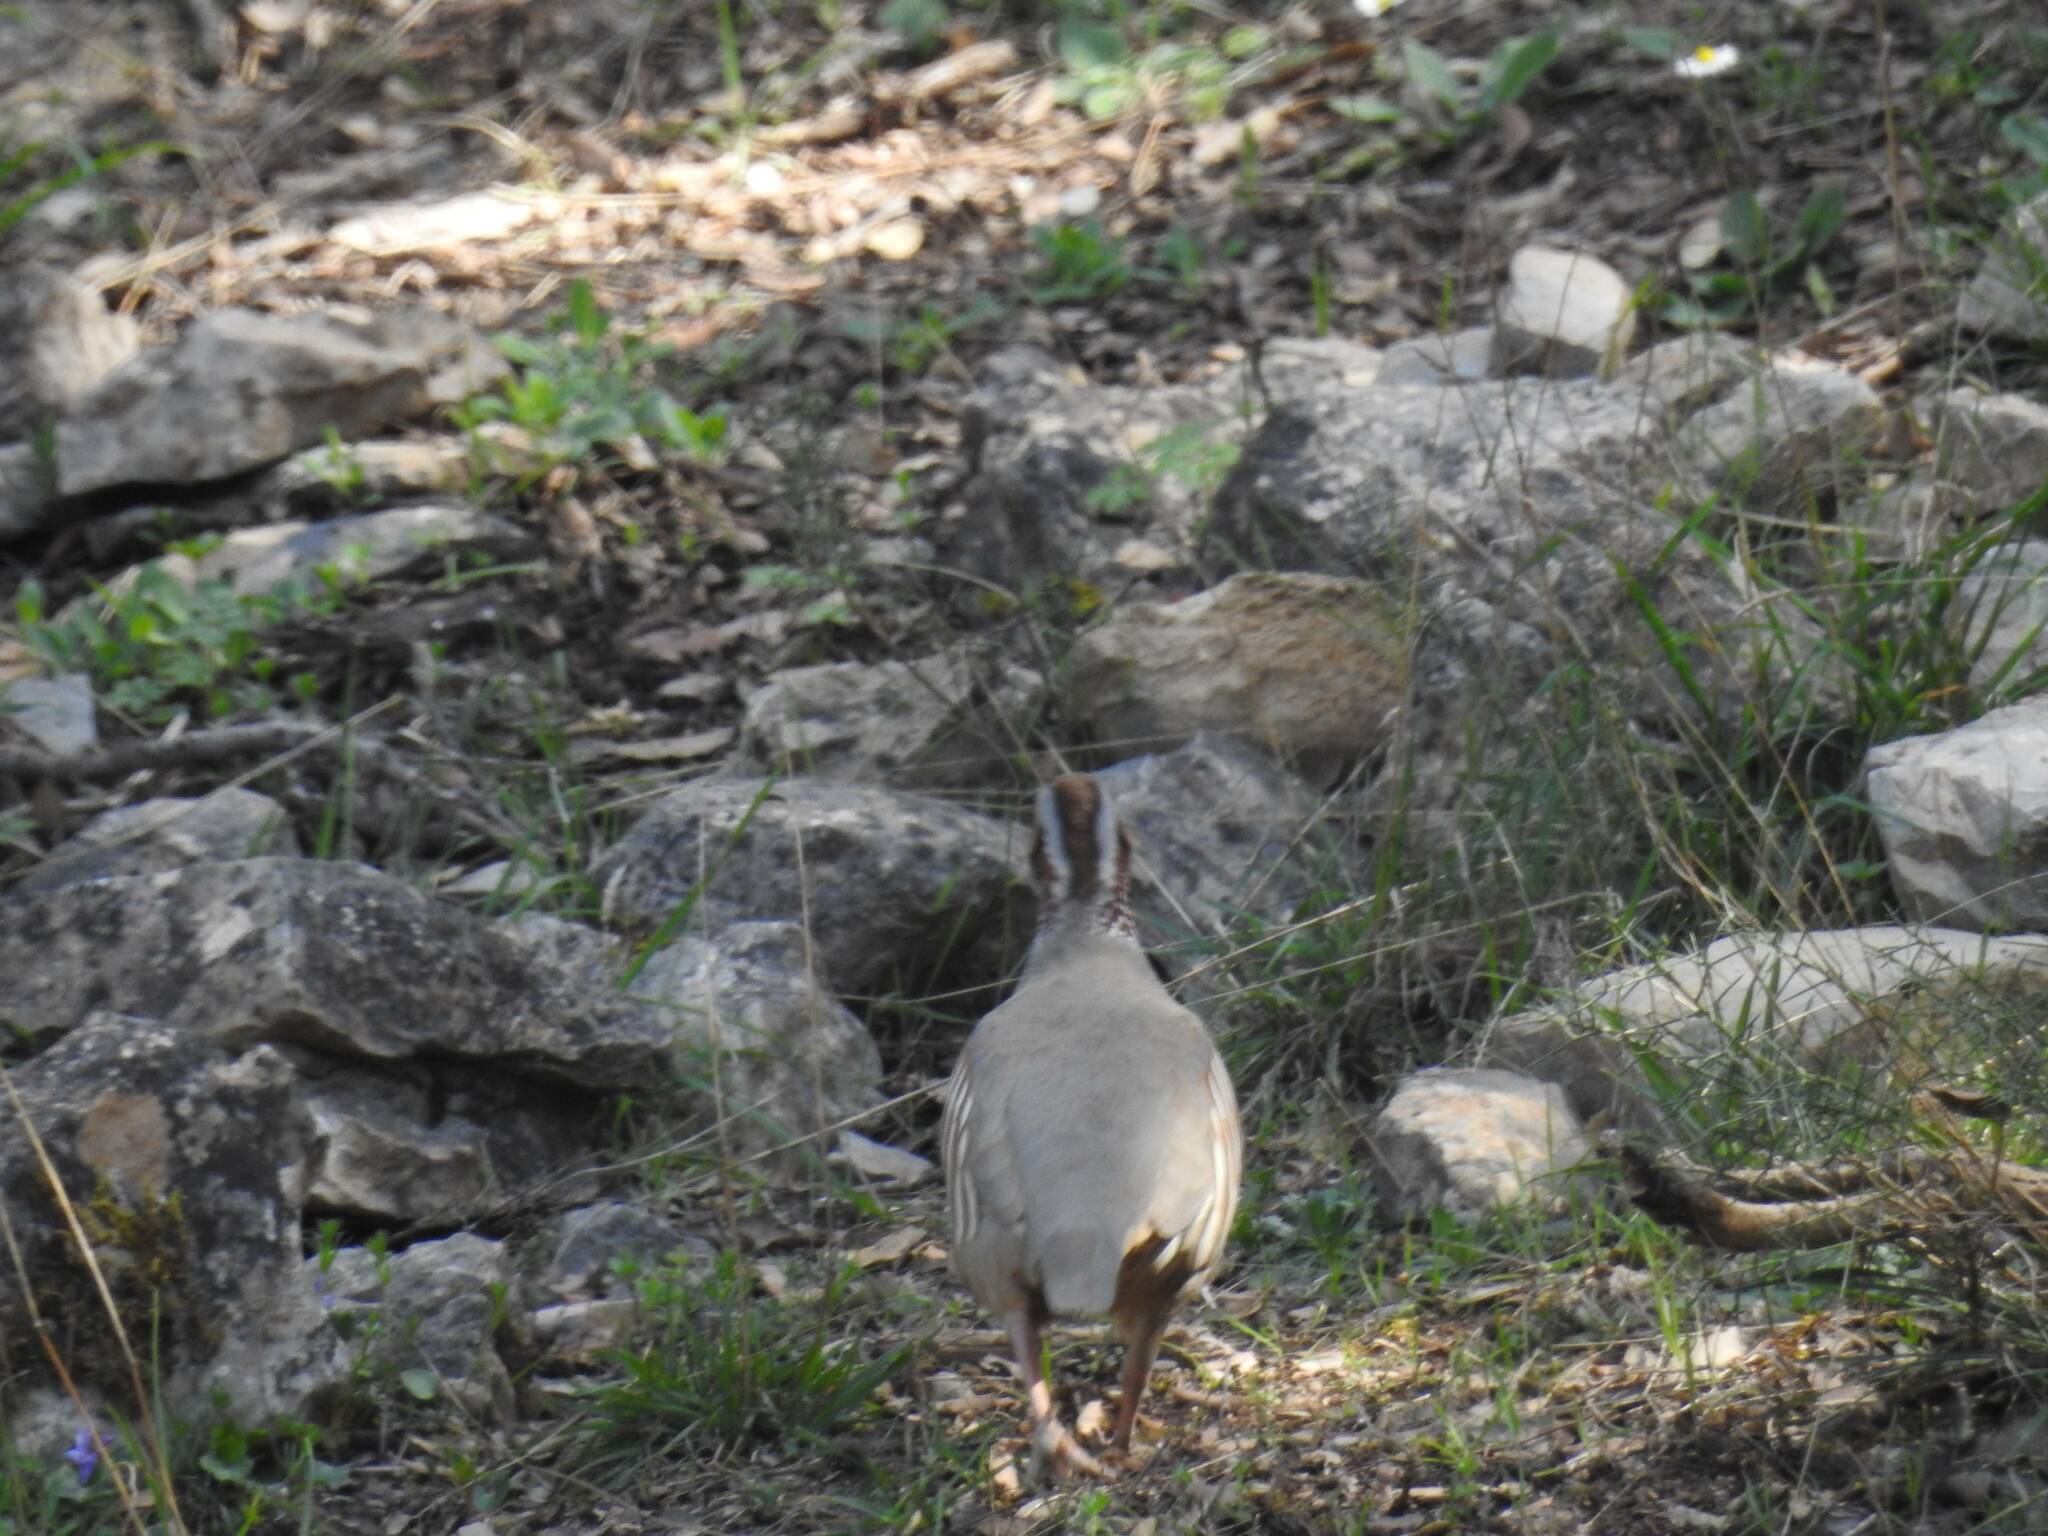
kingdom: Animalia
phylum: Chordata
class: Aves
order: Galliformes
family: Phasianidae
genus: Alectoris
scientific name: Alectoris barbara
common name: Barbary partridge
